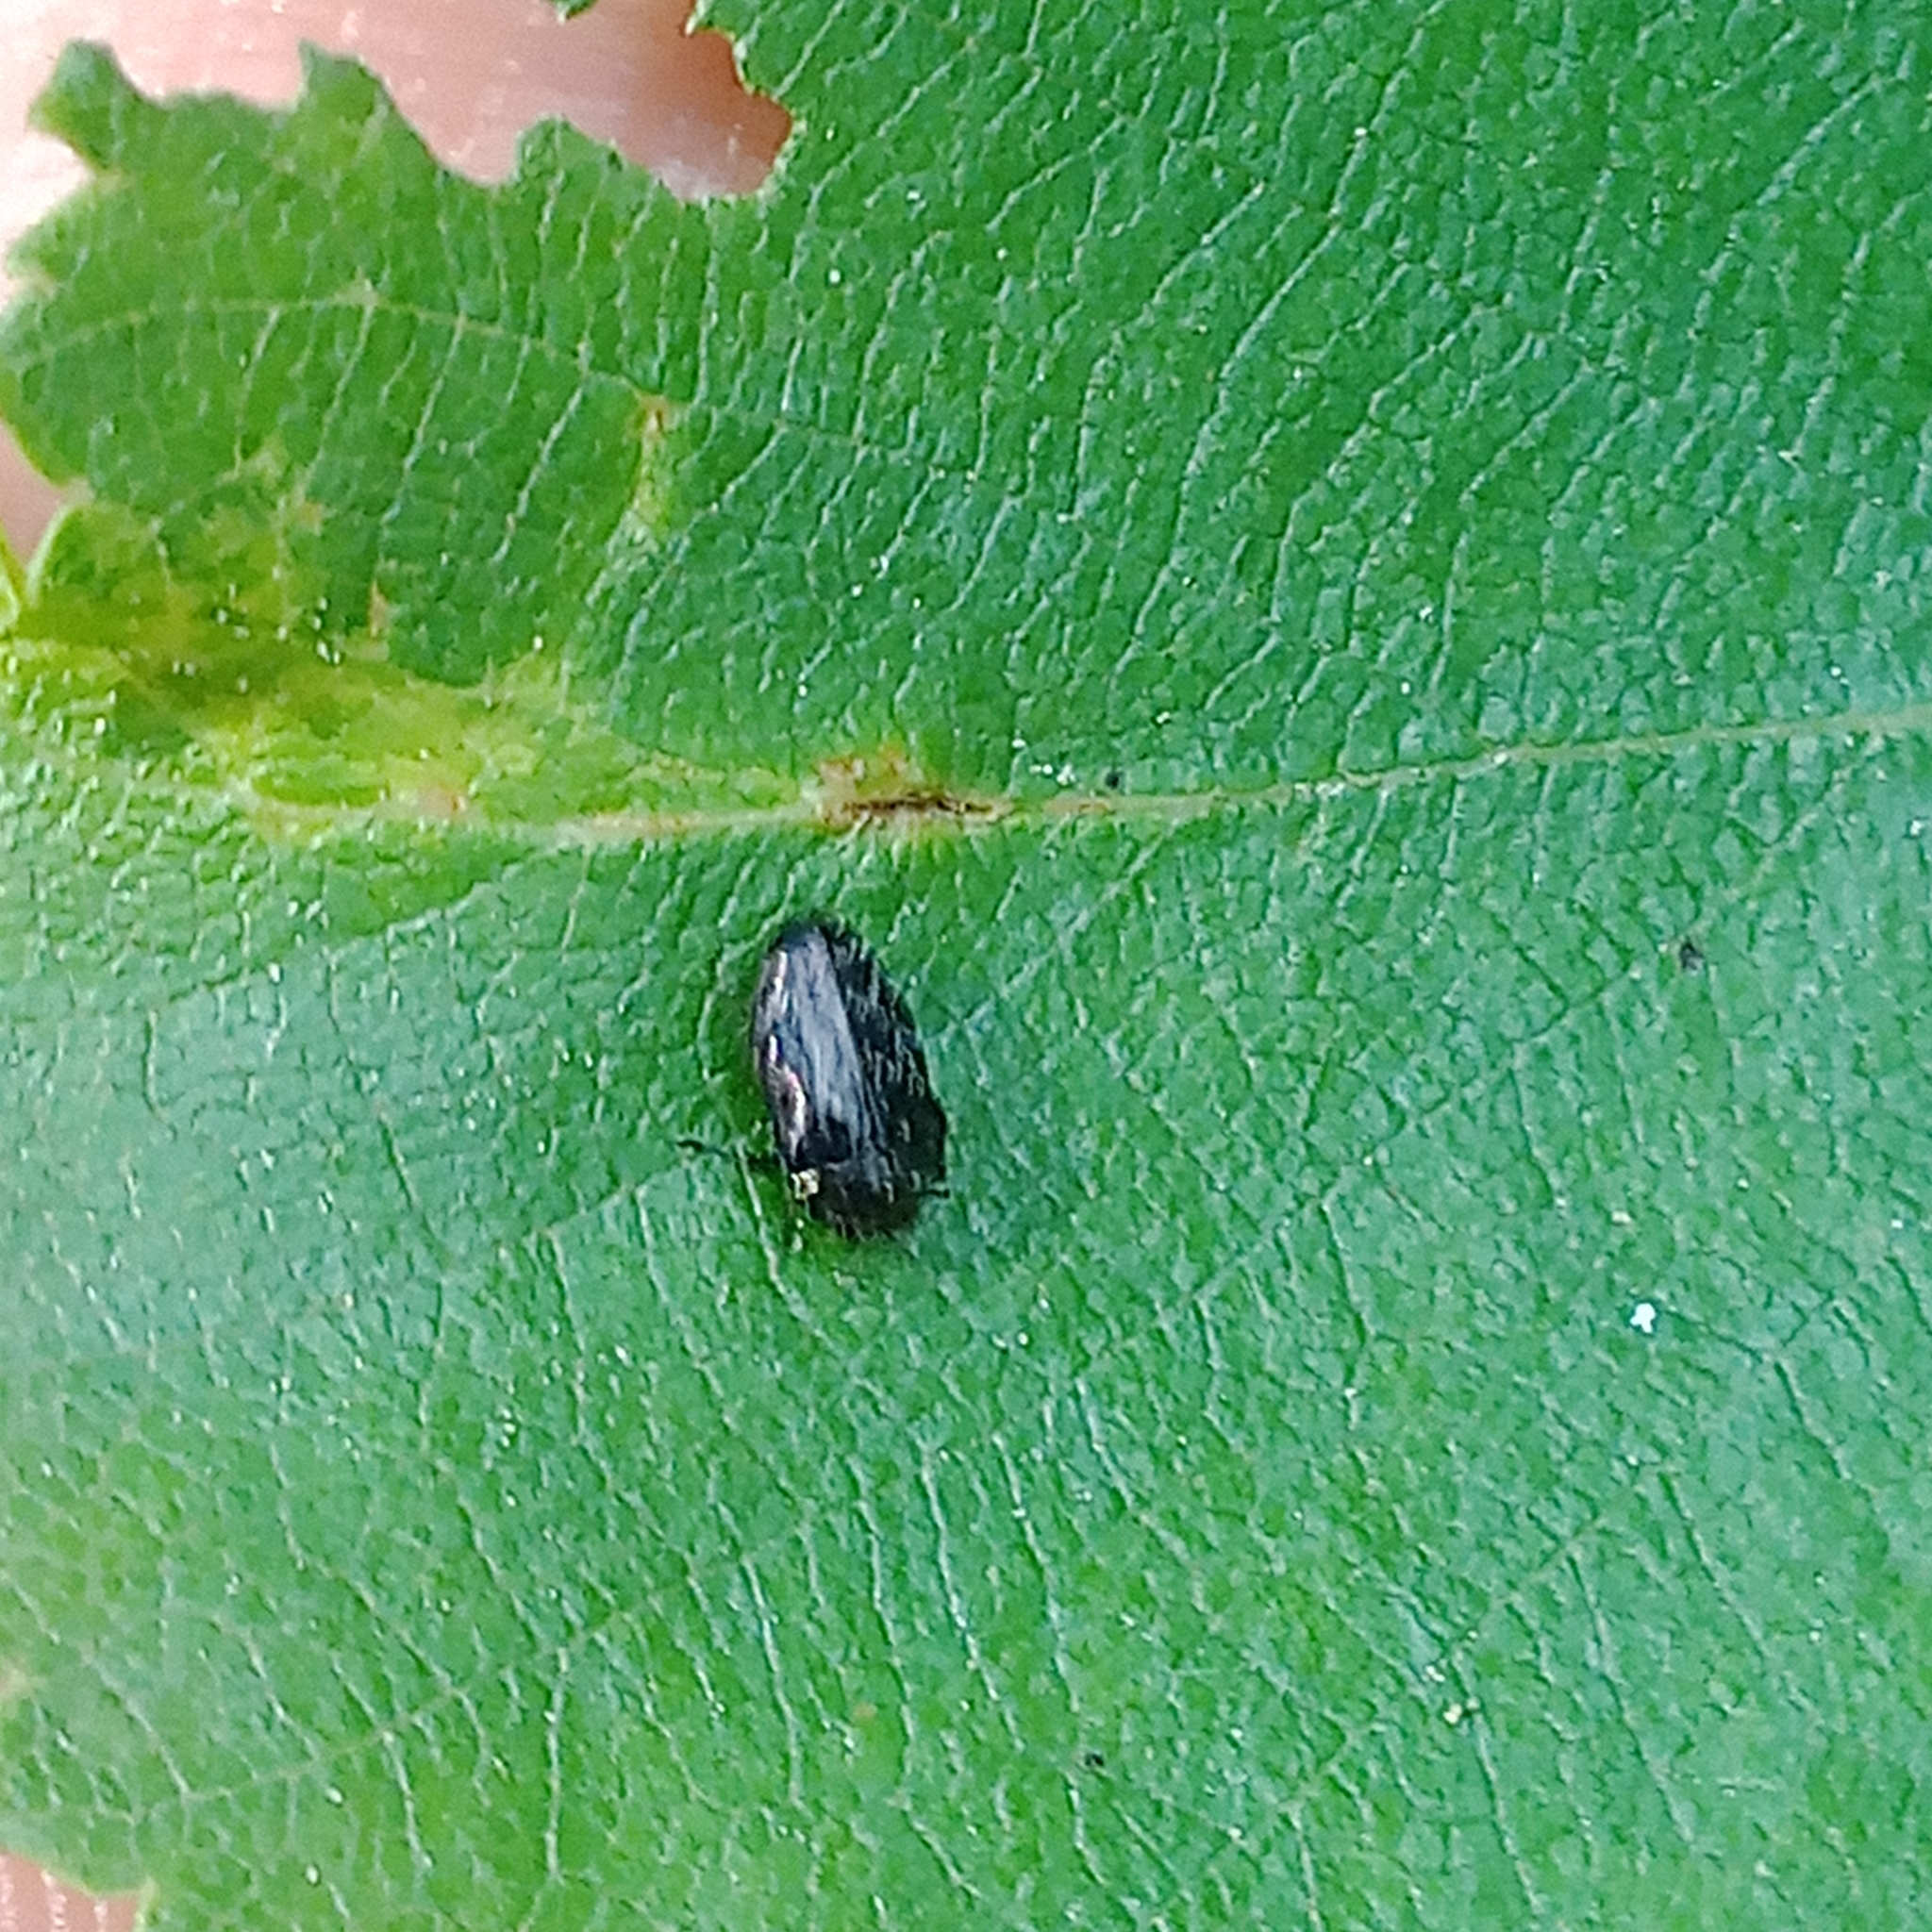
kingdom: Animalia
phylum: Arthropoda
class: Insecta
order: Coleoptera
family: Buprestidae
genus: Trachys
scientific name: Trachys minutus
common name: Metallic wood-boring beetle
